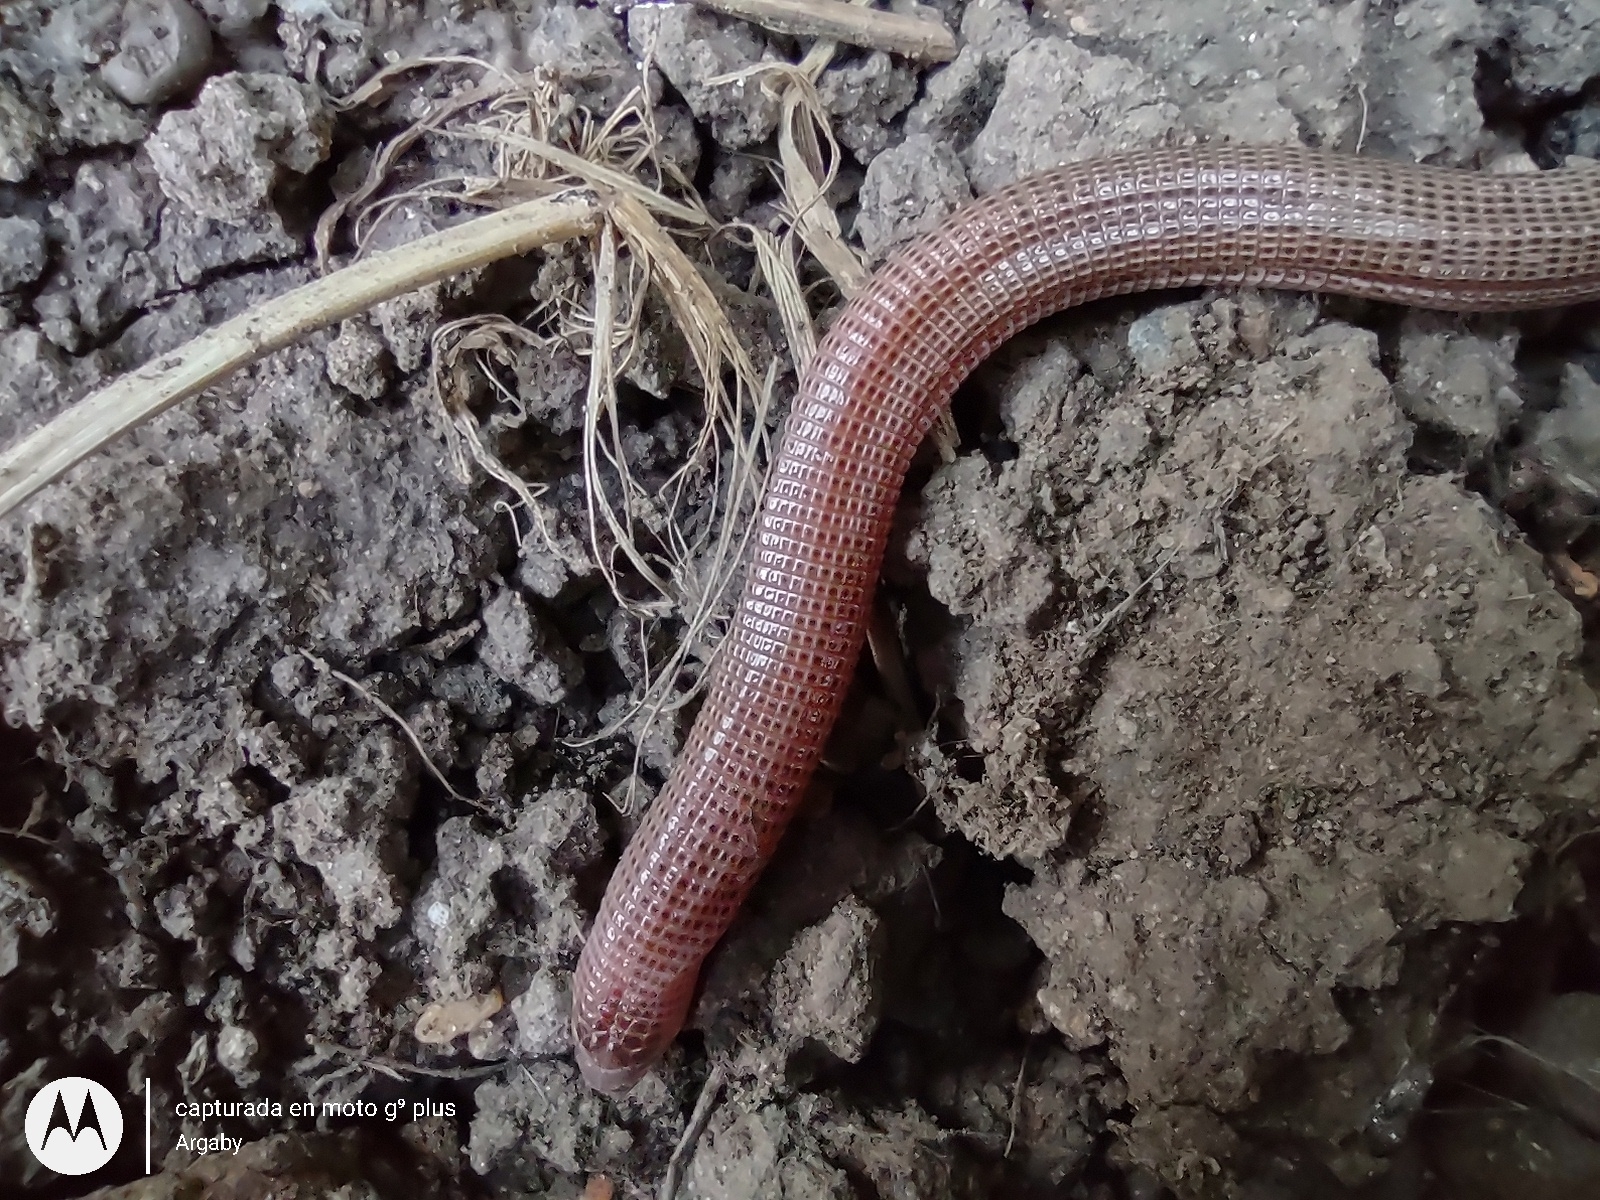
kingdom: Animalia
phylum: Chordata
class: Squamata
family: Amphisbaenidae
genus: Amphisbaena
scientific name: Amphisbaena darwinii
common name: Darwin's ringed worm lizard
